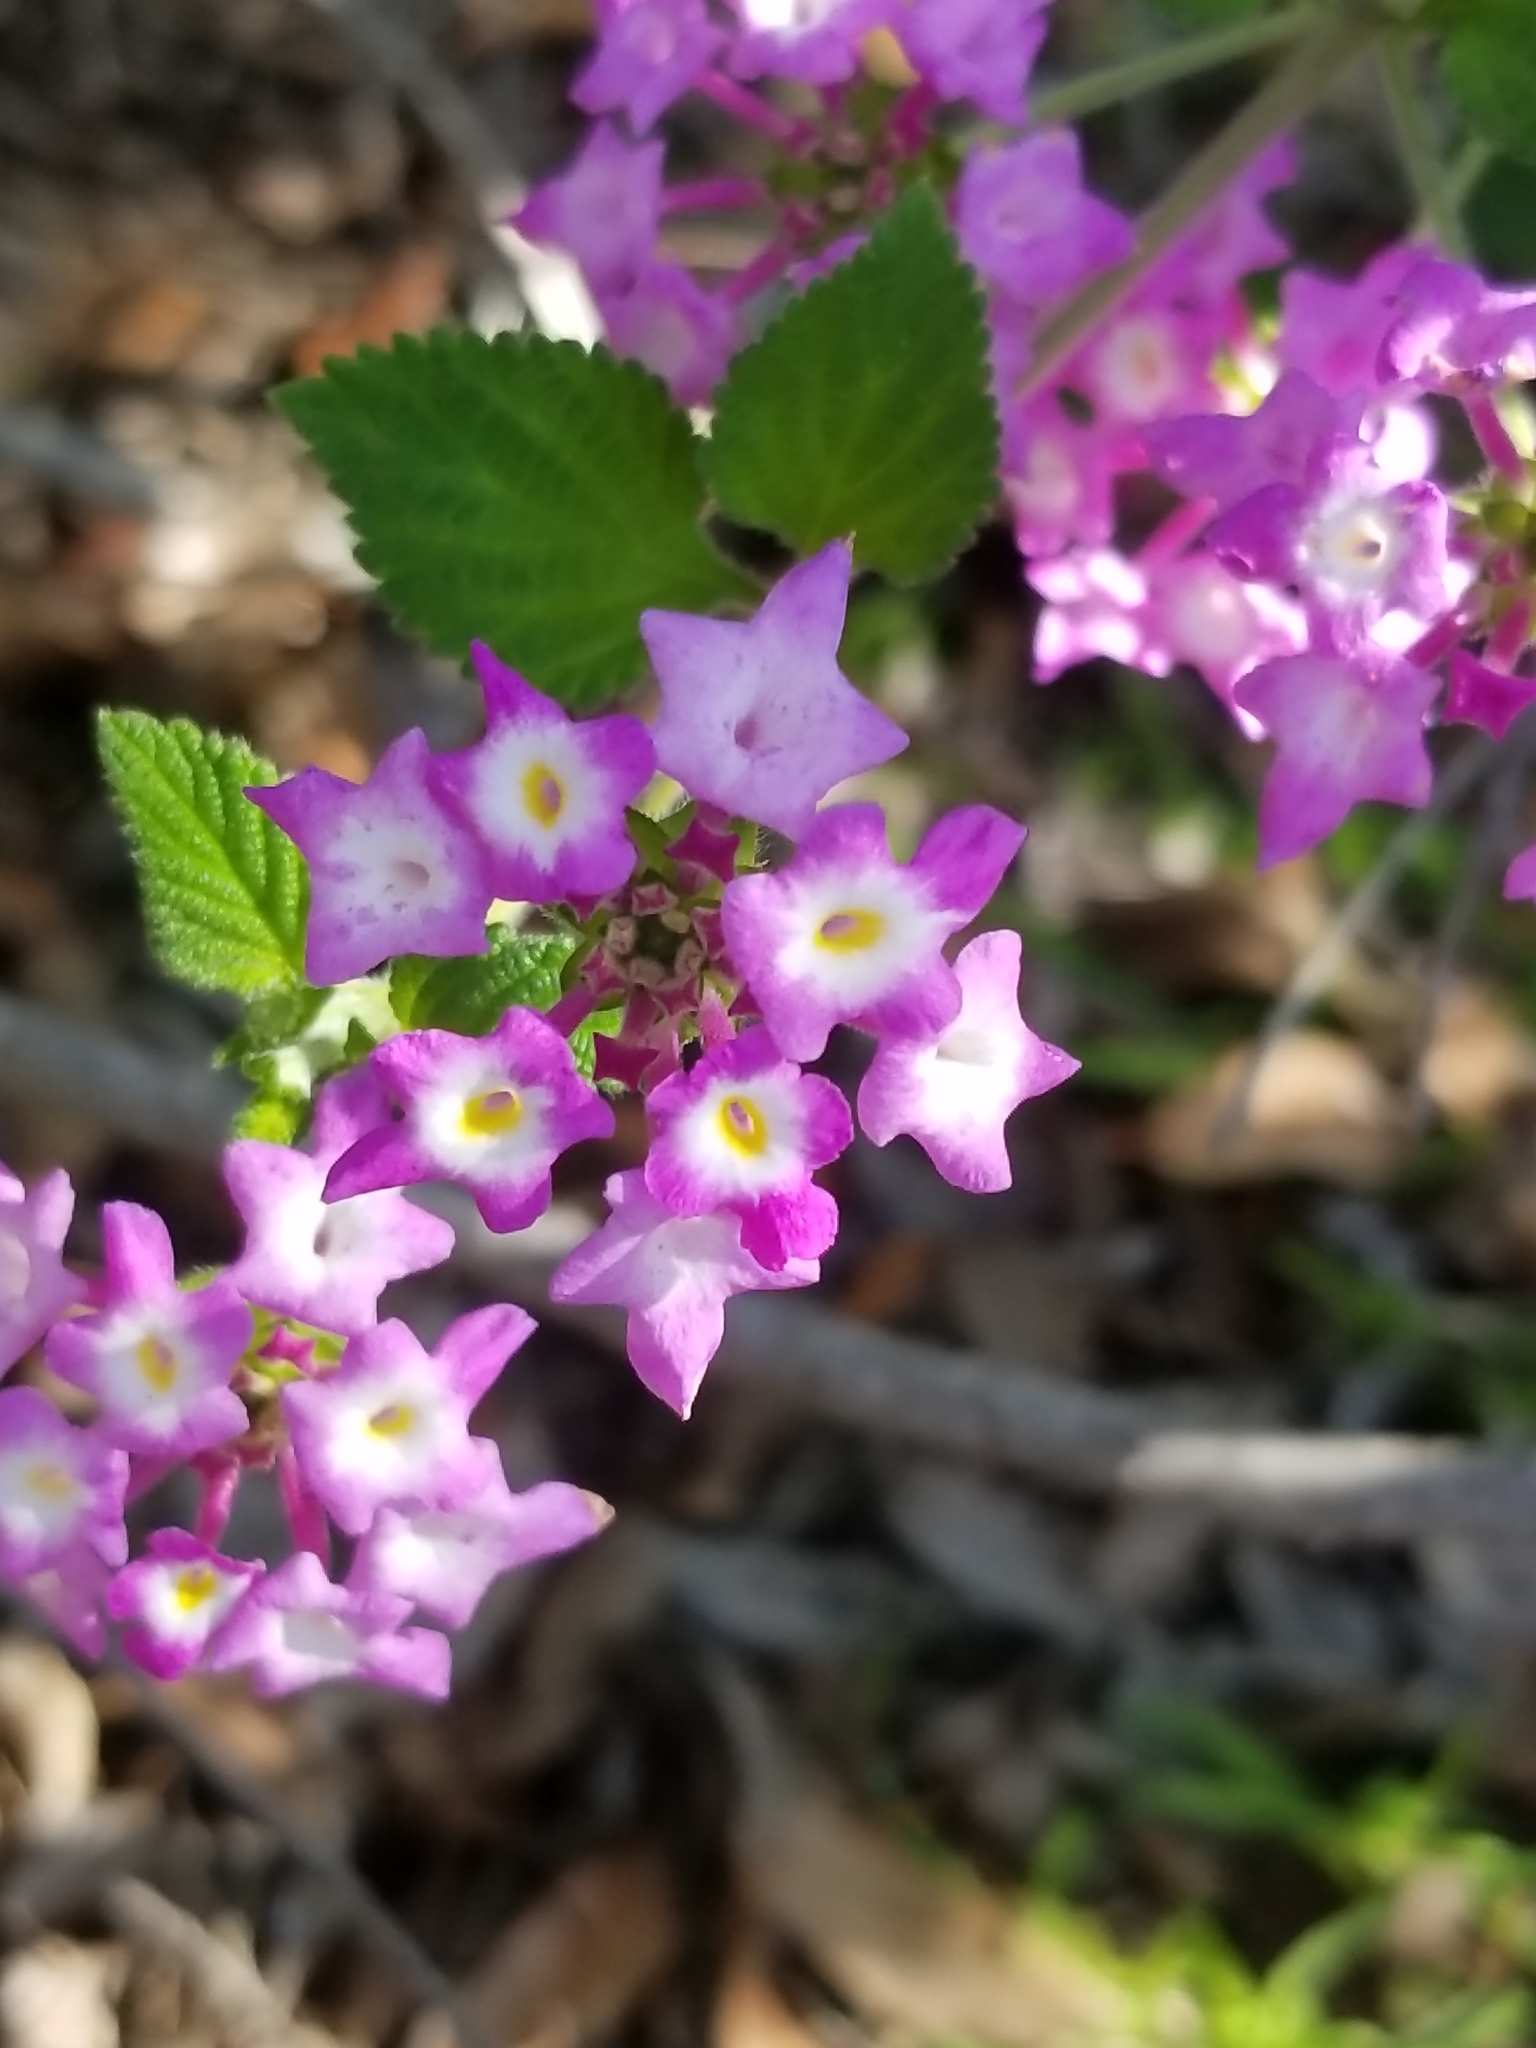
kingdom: Plantae
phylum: Tracheophyta
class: Magnoliopsida
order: Lamiales
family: Verbenaceae
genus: Lantana
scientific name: Lantana montevidensis
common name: Trailing shrubverbena
